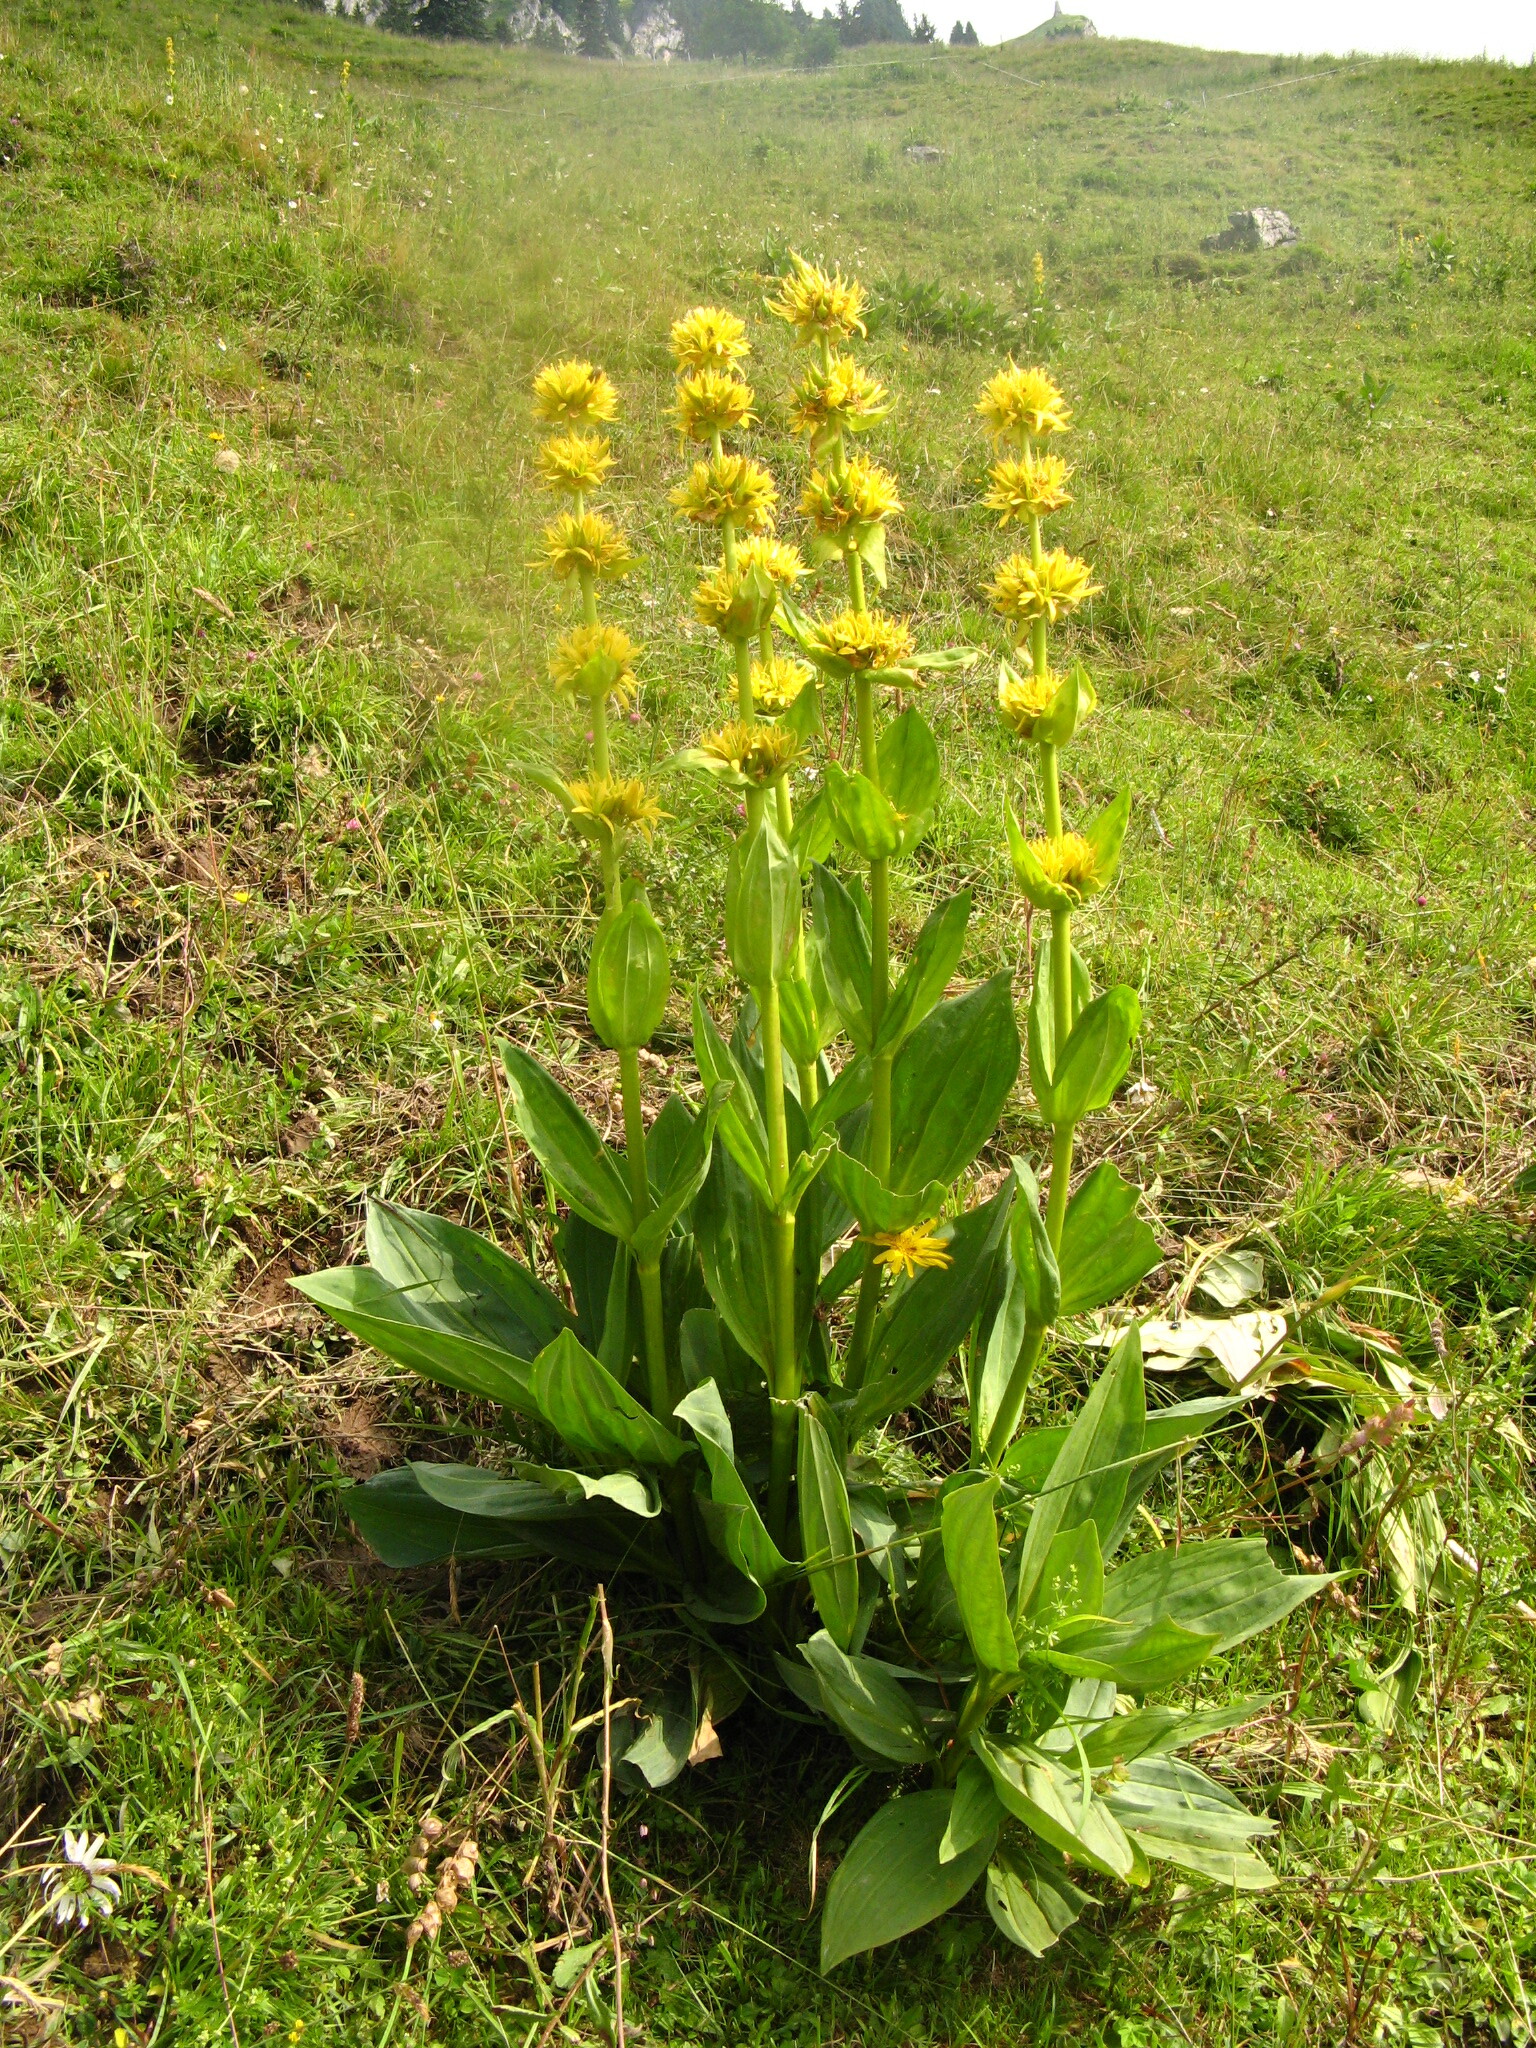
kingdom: Plantae
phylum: Tracheophyta
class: Magnoliopsida
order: Gentianales
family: Gentianaceae
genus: Gentiana
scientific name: Gentiana lutea
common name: Great yellow gentian
